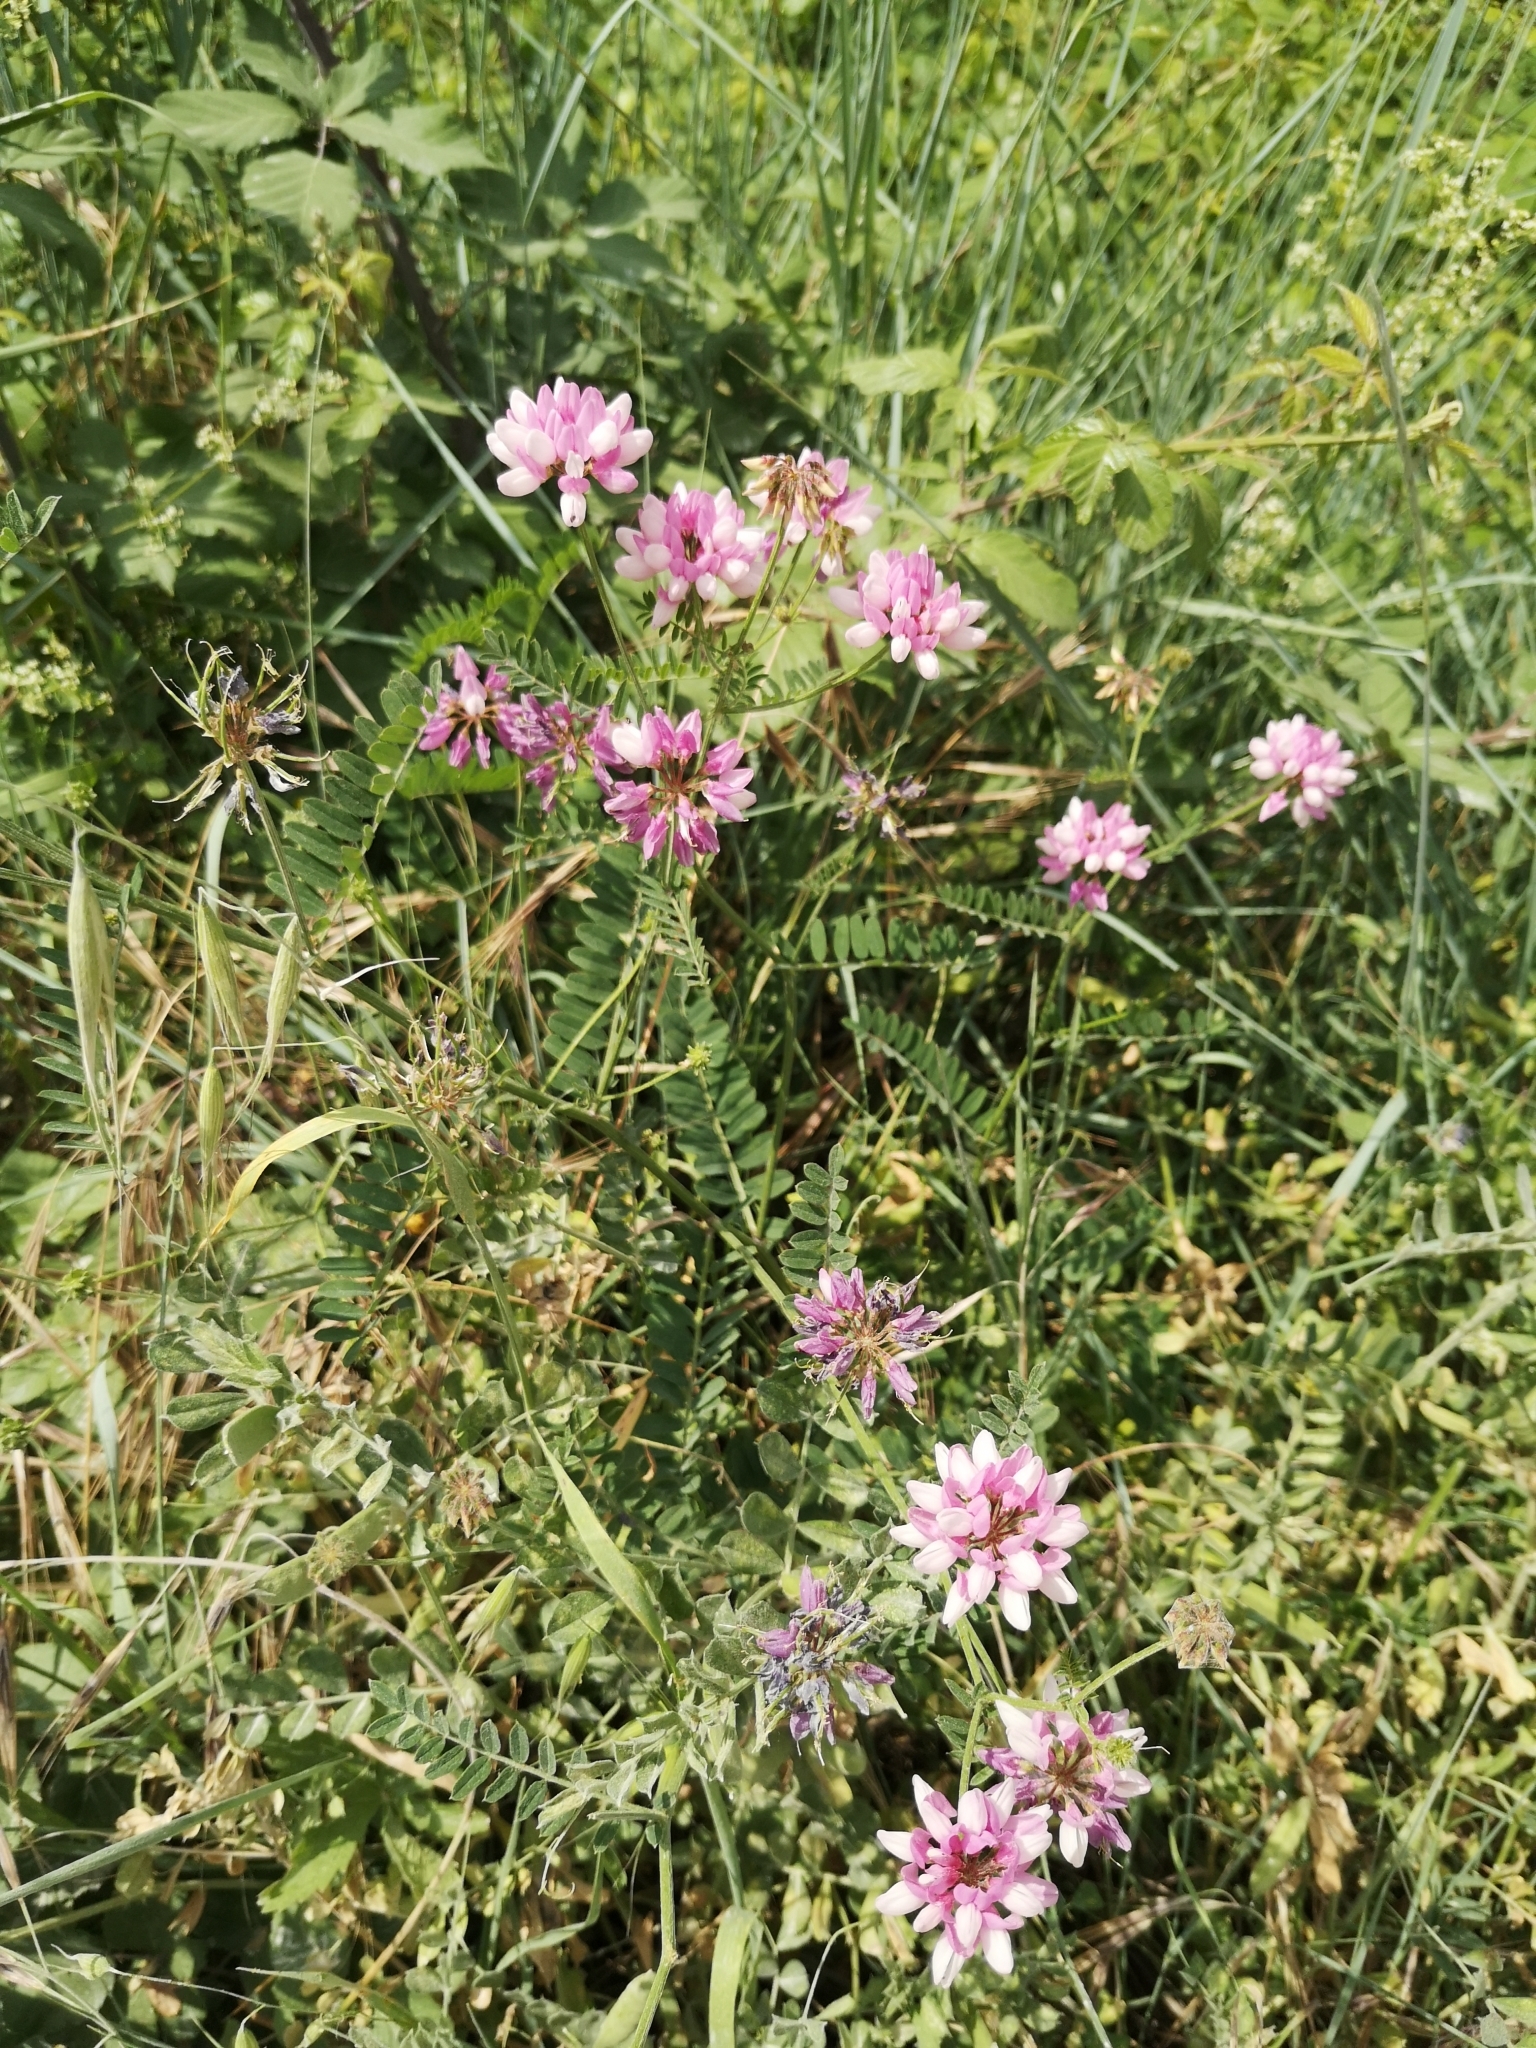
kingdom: Plantae
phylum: Tracheophyta
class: Magnoliopsida
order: Fabales
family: Fabaceae
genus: Coronilla
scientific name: Coronilla varia
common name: Crownvetch
